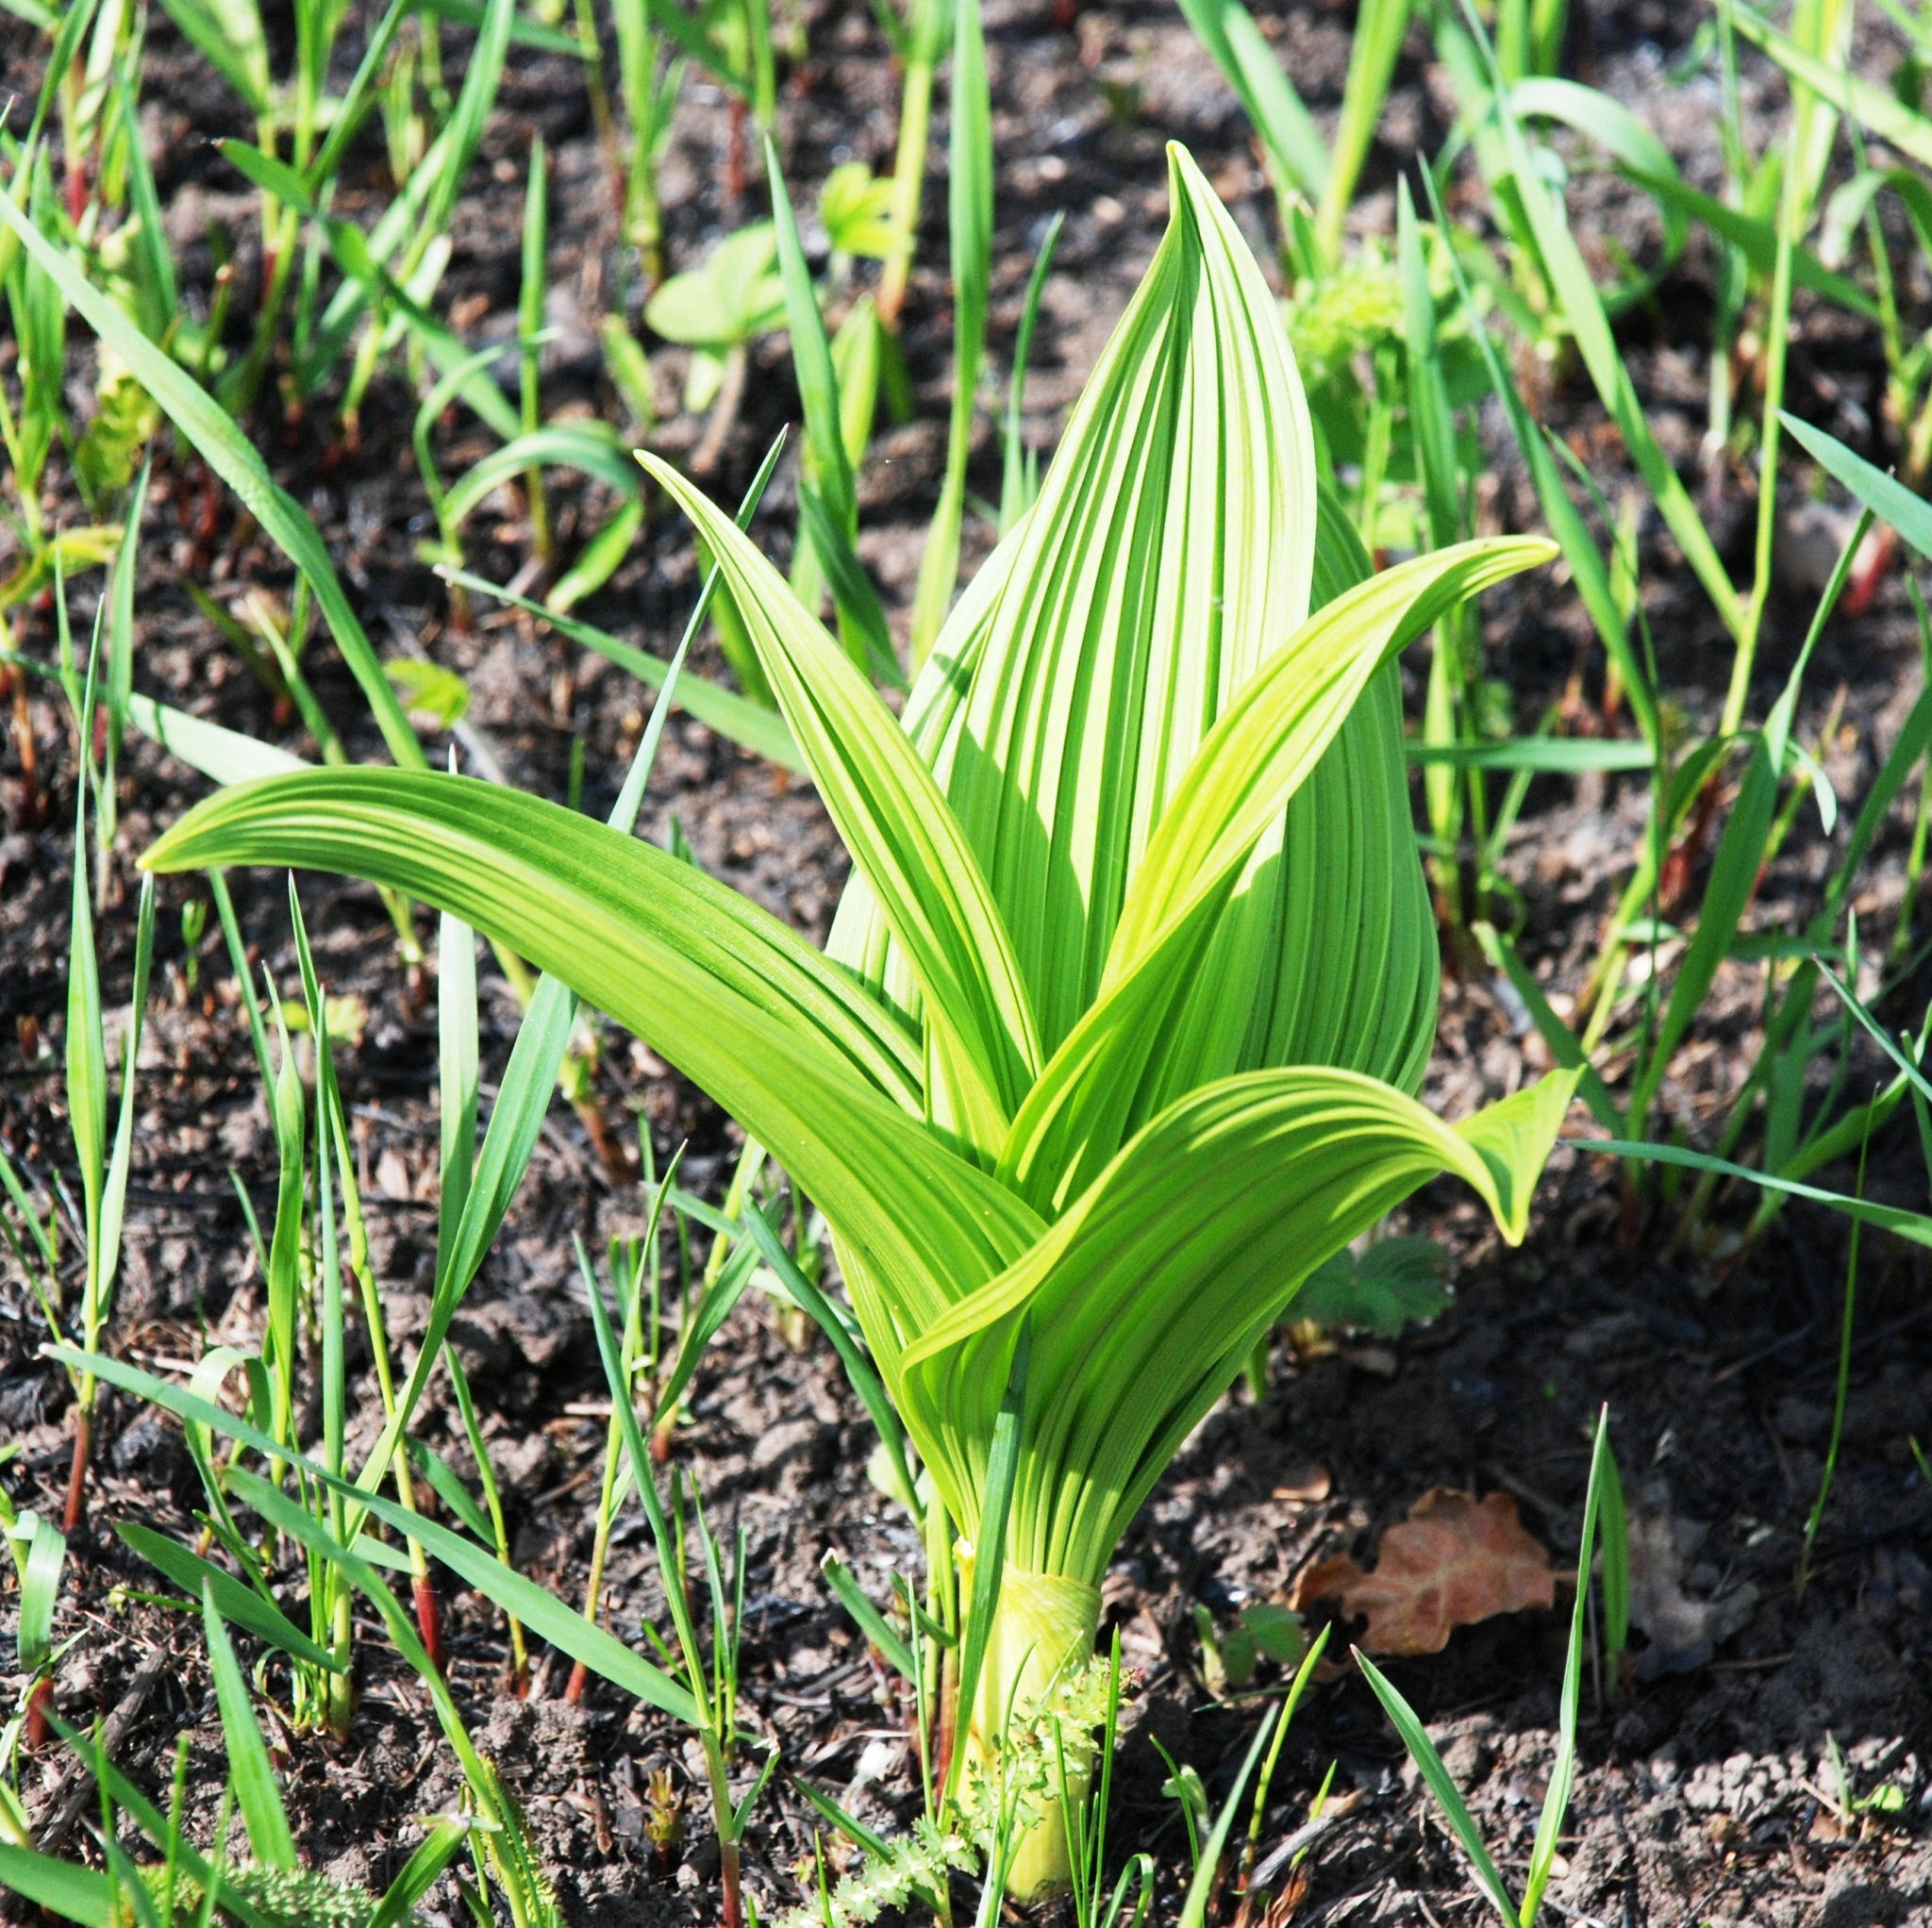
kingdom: Plantae
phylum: Tracheophyta
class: Liliopsida
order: Liliales
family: Melanthiaceae
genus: Veratrum
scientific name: Veratrum lobelianum
